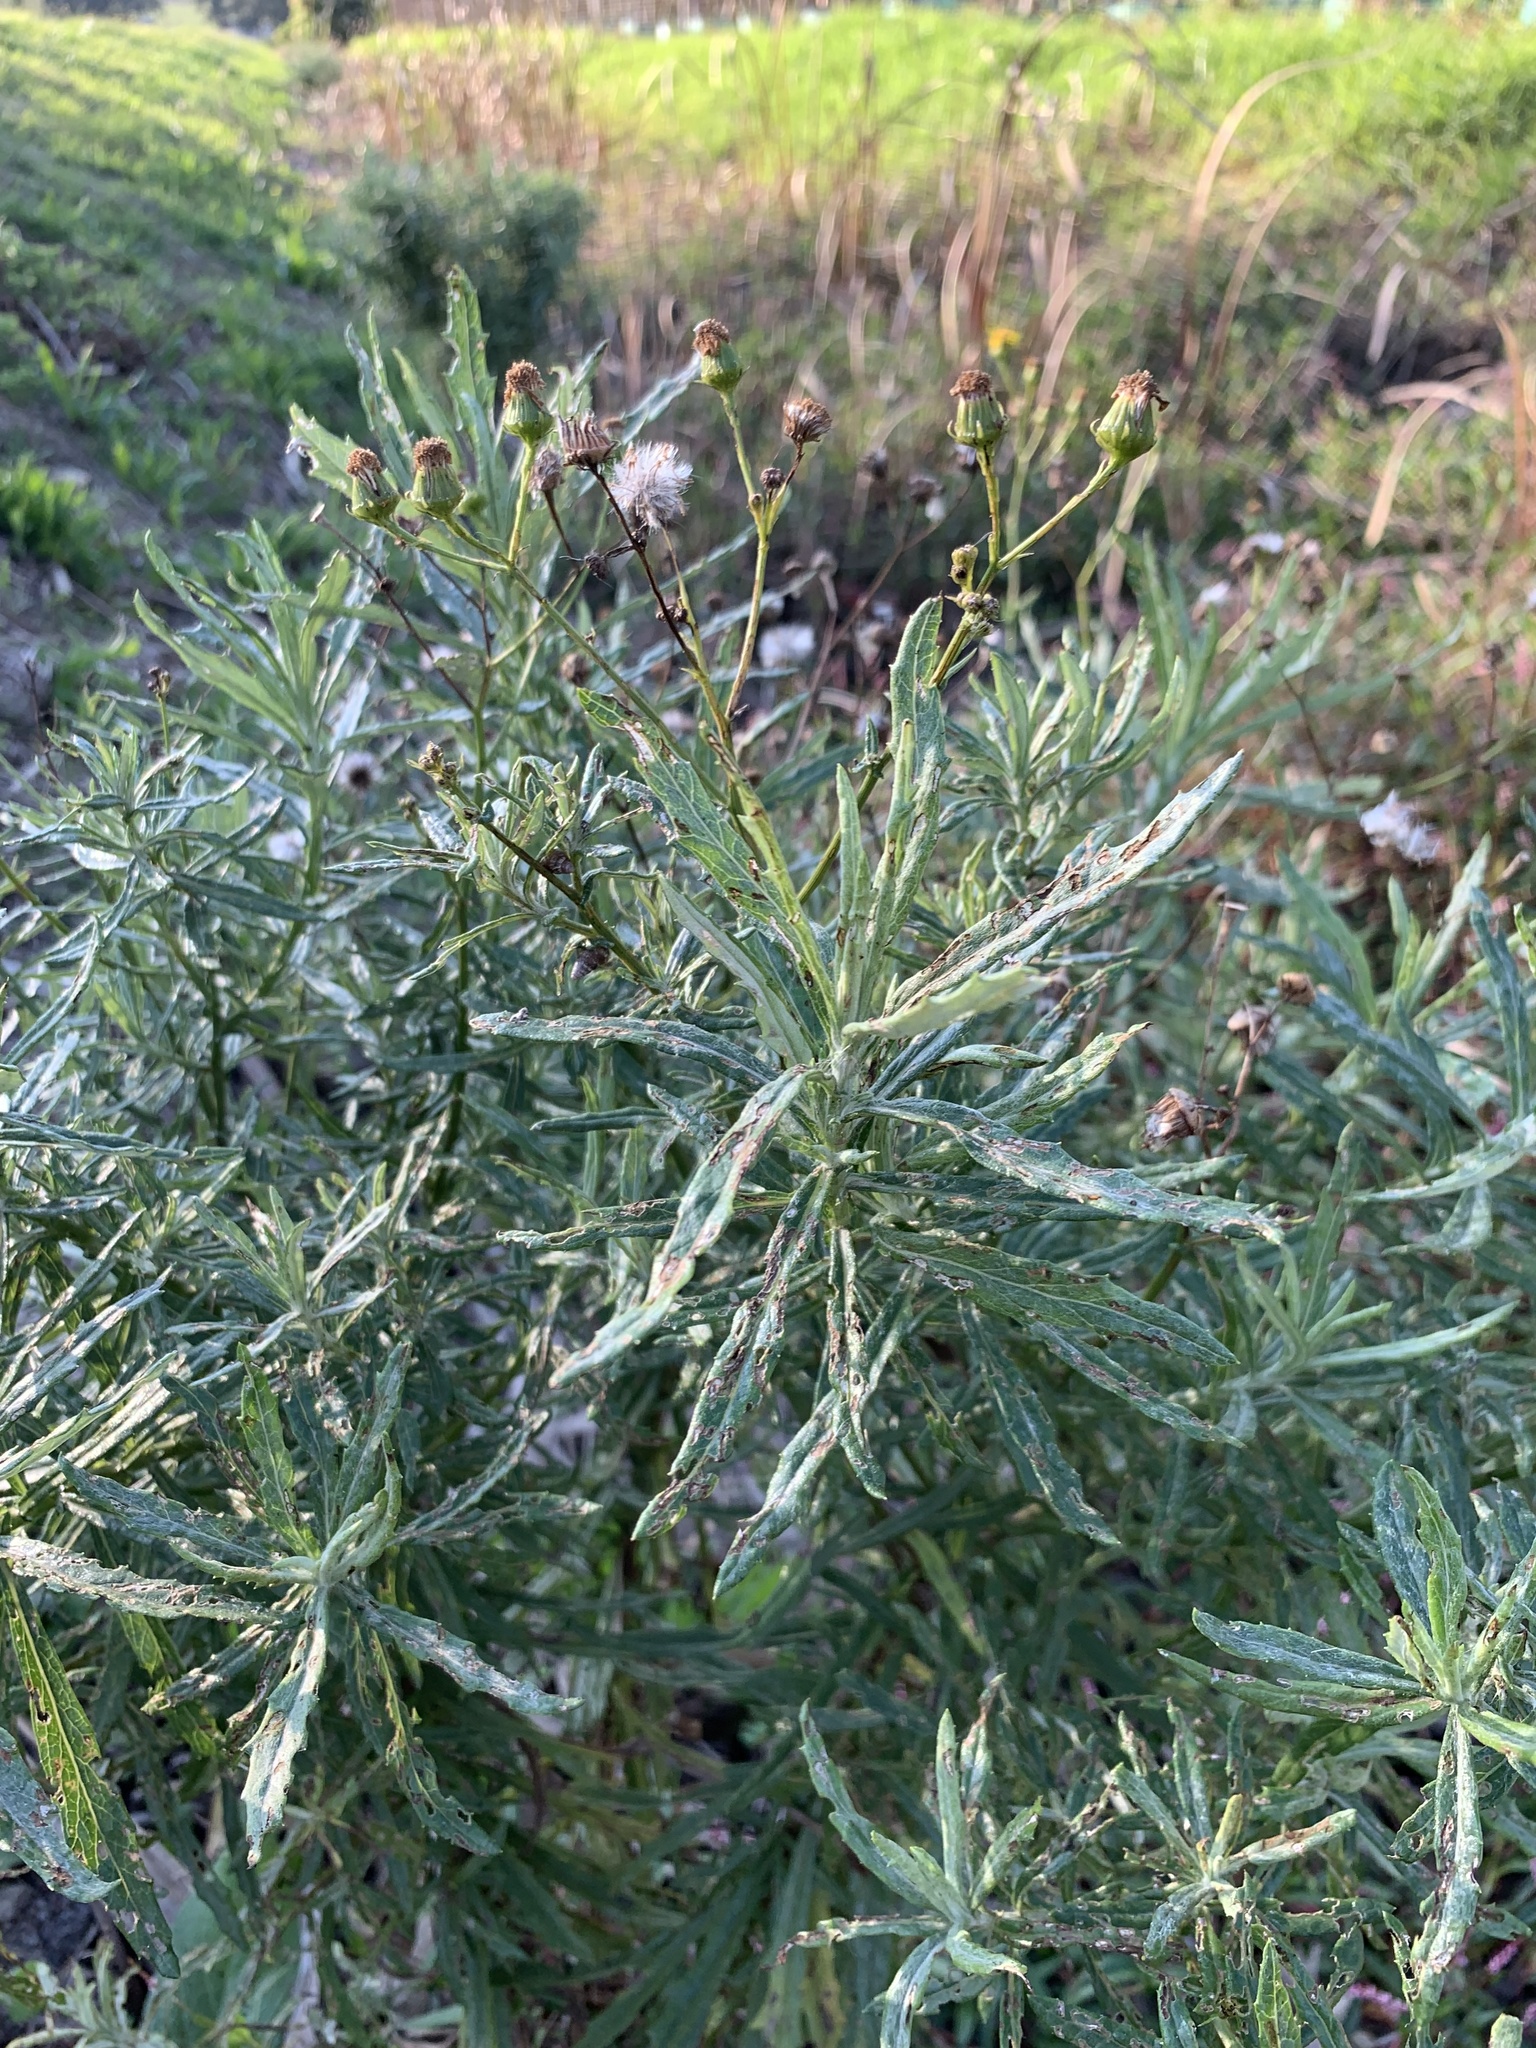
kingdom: Plantae
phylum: Tracheophyta
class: Magnoliopsida
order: Asterales
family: Asteraceae
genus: Senecio
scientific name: Senecio pterophorus
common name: Shoddy ragwort
